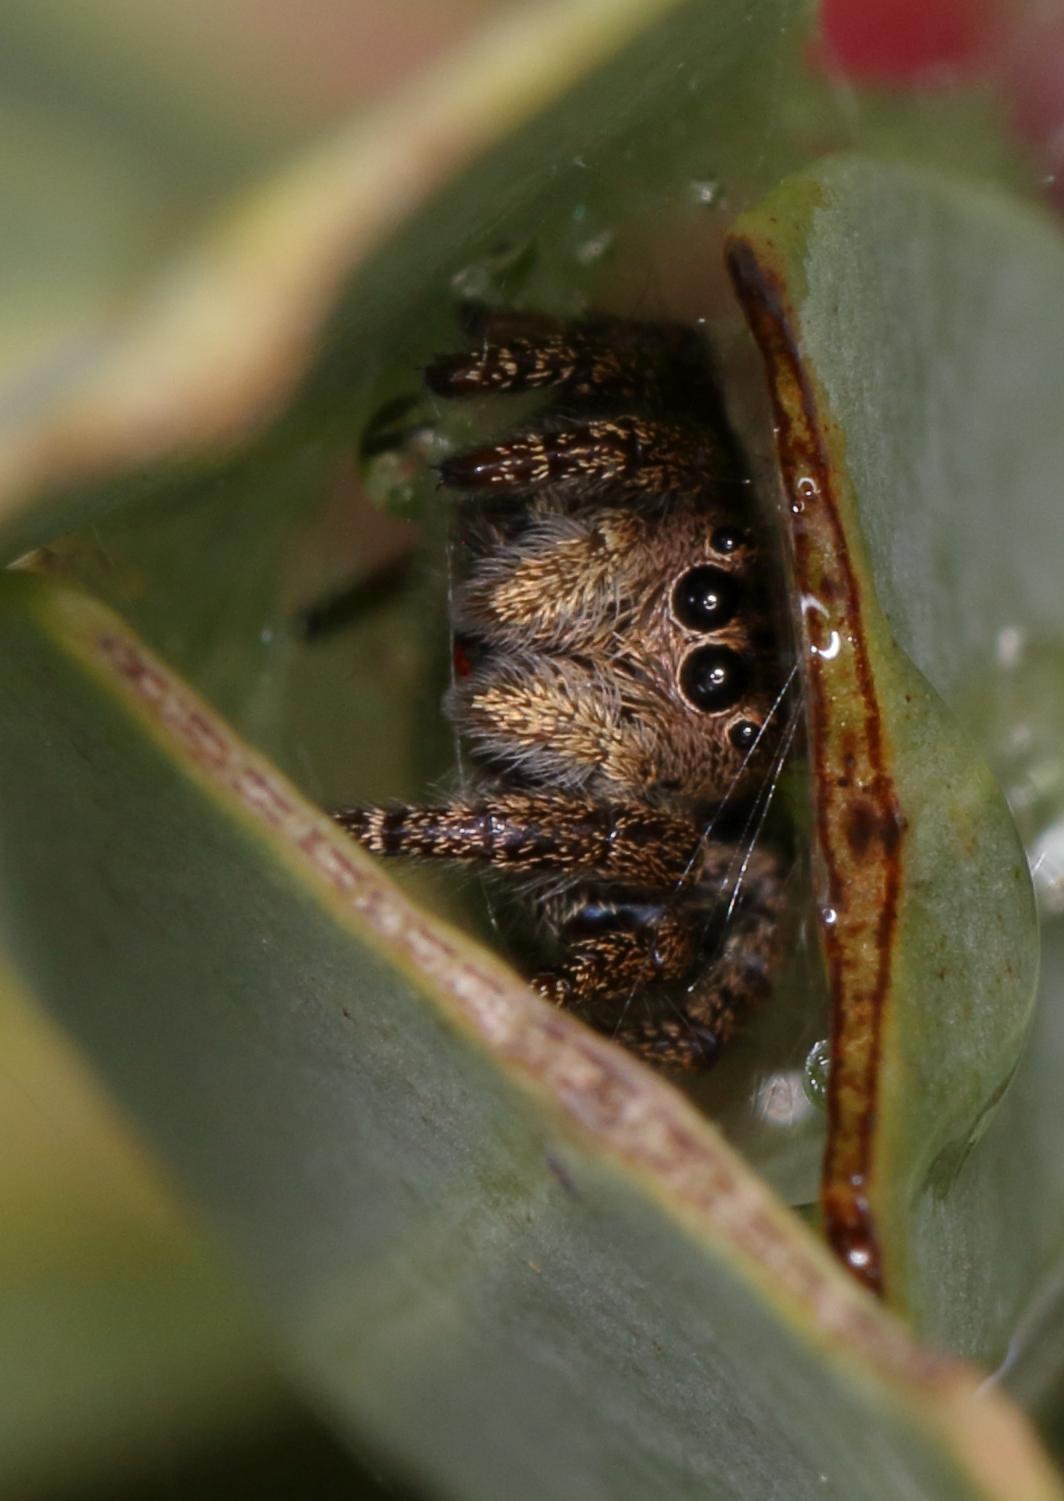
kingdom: Animalia
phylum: Arthropoda
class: Arachnida
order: Araneae
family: Salticidae
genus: Baryphas
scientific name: Baryphas ahenus
